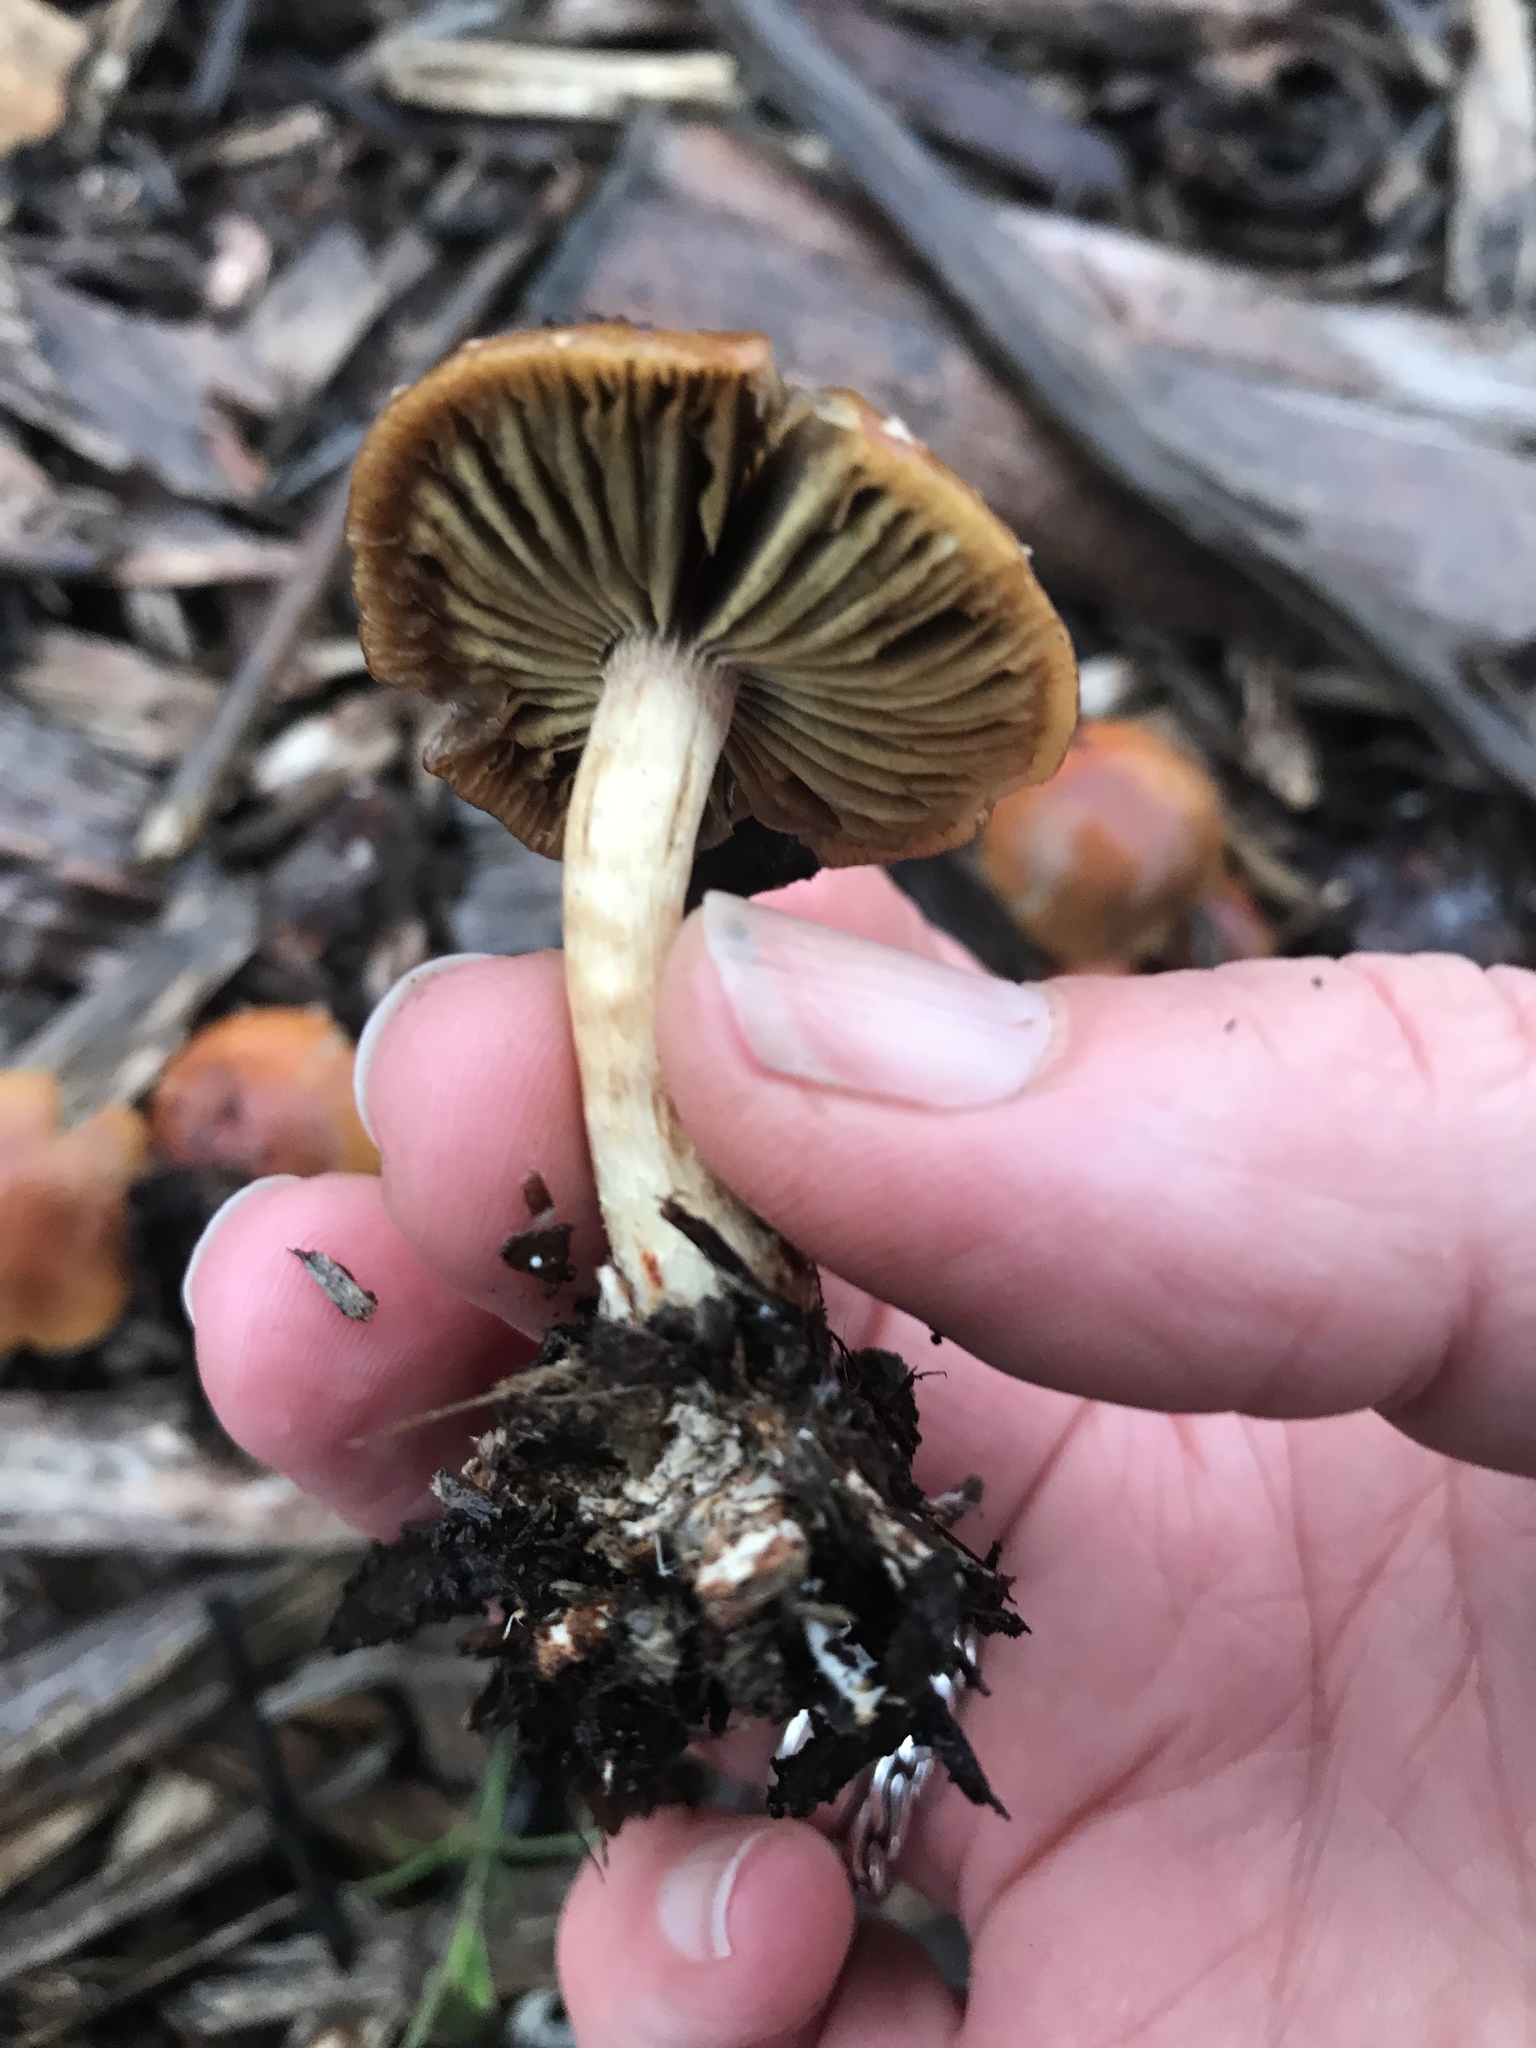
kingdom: Fungi
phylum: Basidiomycota
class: Agaricomycetes
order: Agaricales
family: Strophariaceae
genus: Leratiomyces
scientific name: Leratiomyces ceres
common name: Redlead roundhead
